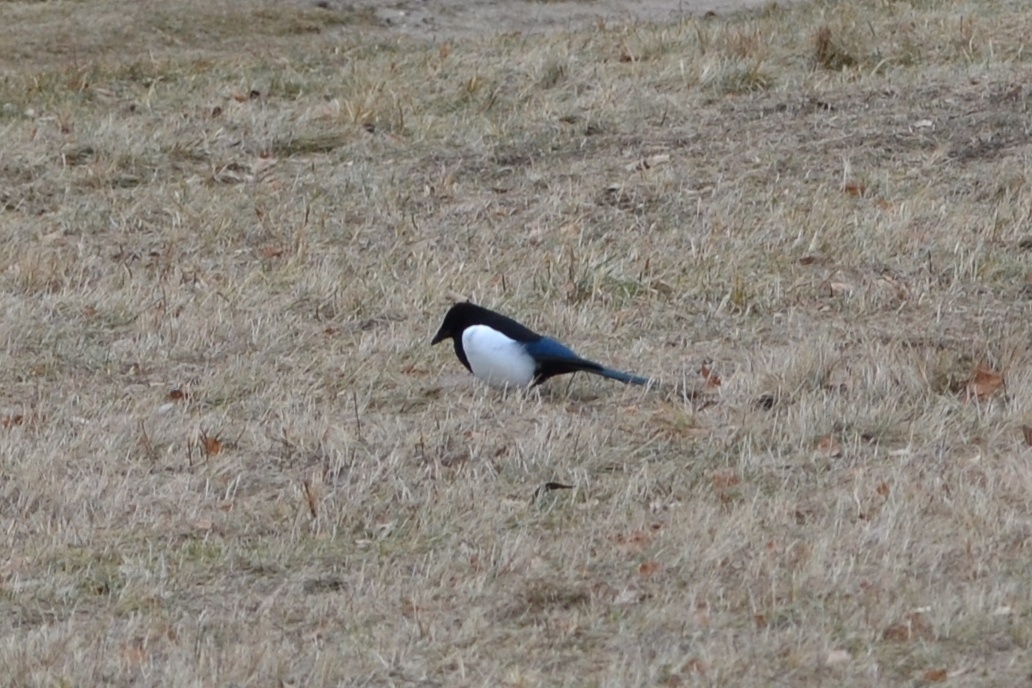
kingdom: Animalia
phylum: Chordata
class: Aves
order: Passeriformes
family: Corvidae
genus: Pica
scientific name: Pica pica
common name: Eurasian magpie
